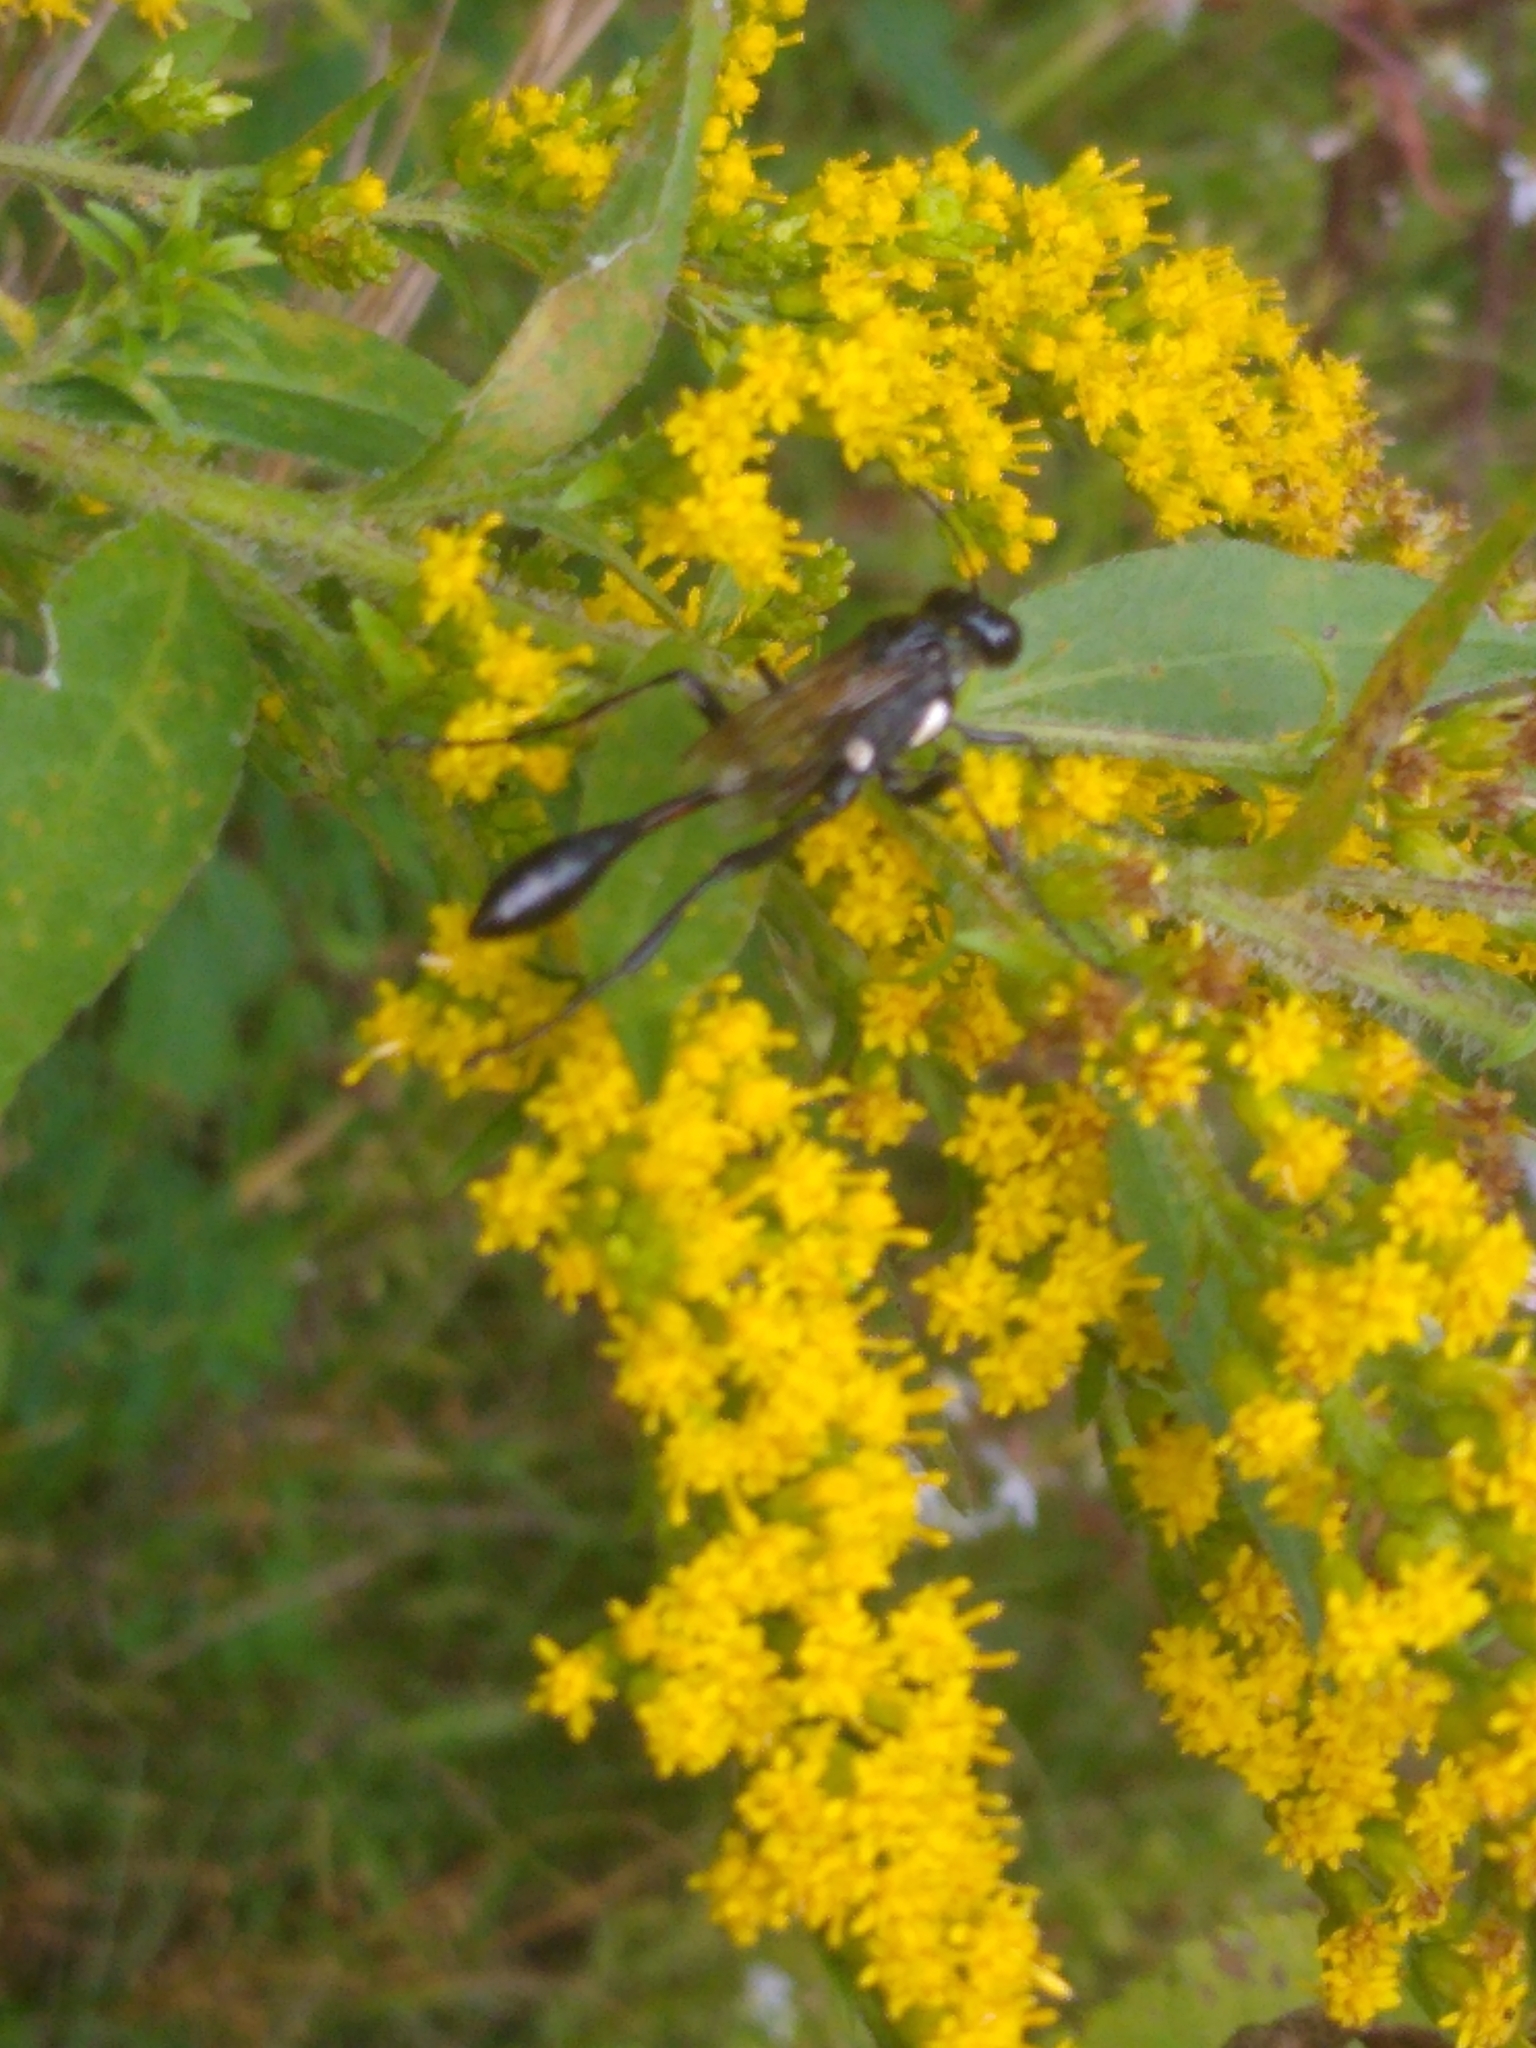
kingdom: Animalia
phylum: Arthropoda
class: Insecta
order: Hymenoptera
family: Sphecidae
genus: Eremnophila
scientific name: Eremnophila aureonotata
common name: Gold-marked thread-waisted wasp
